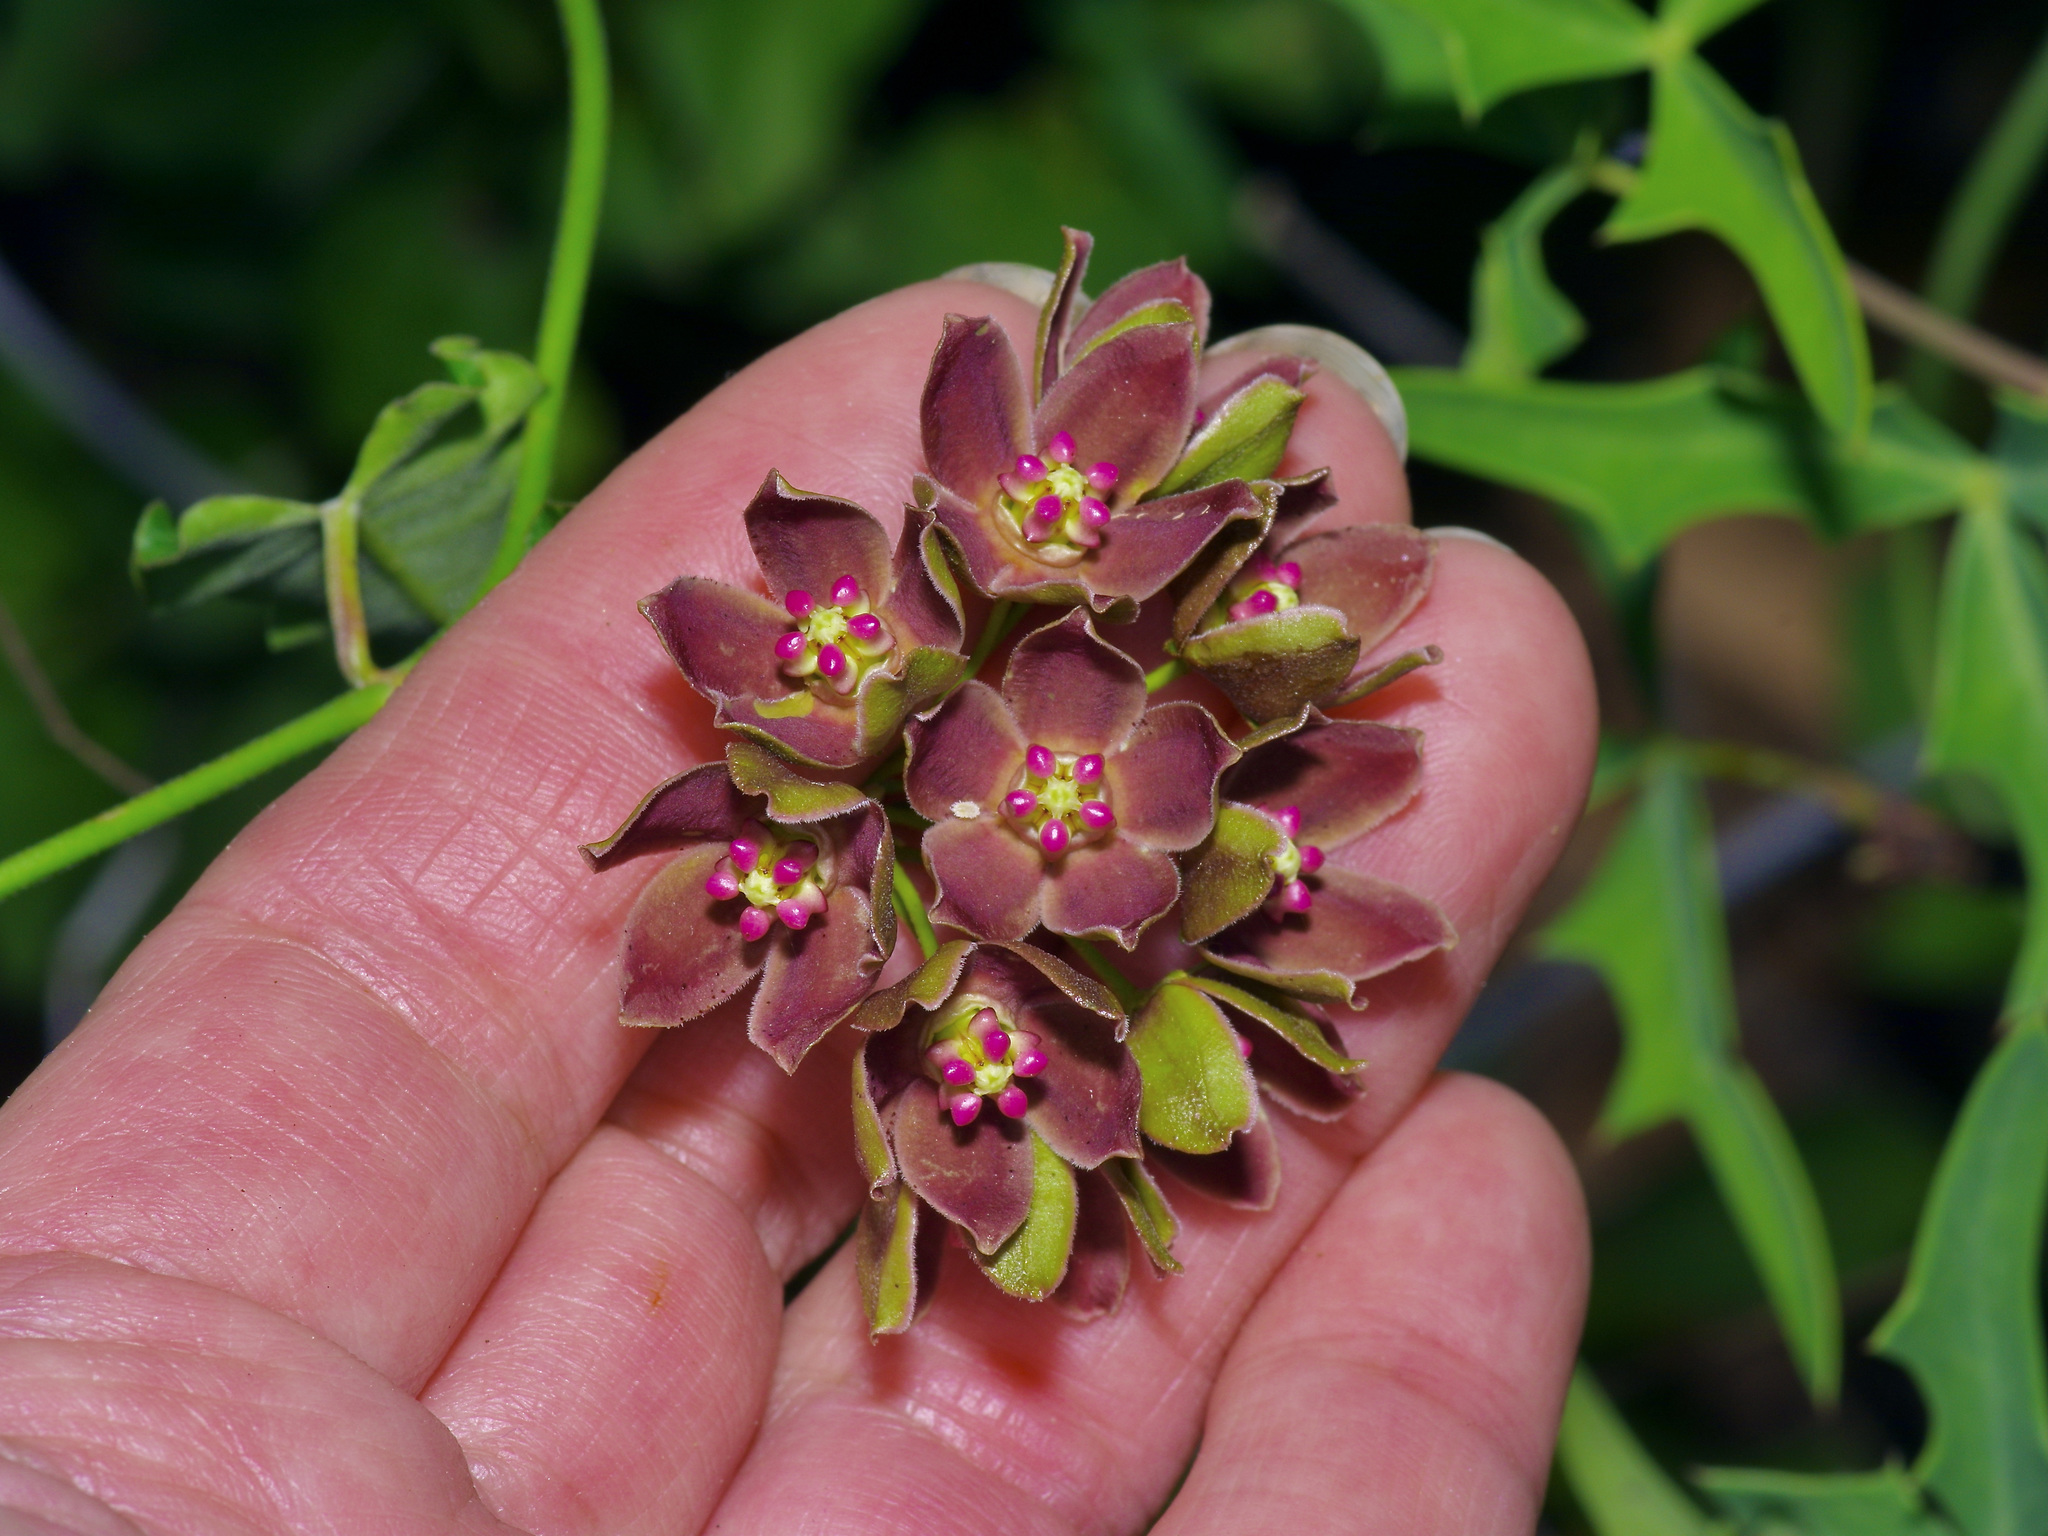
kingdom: Plantae
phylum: Tracheophyta
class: Magnoliopsida
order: Gentianales
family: Apocynaceae
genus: Funastrum
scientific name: Funastrum crispum
